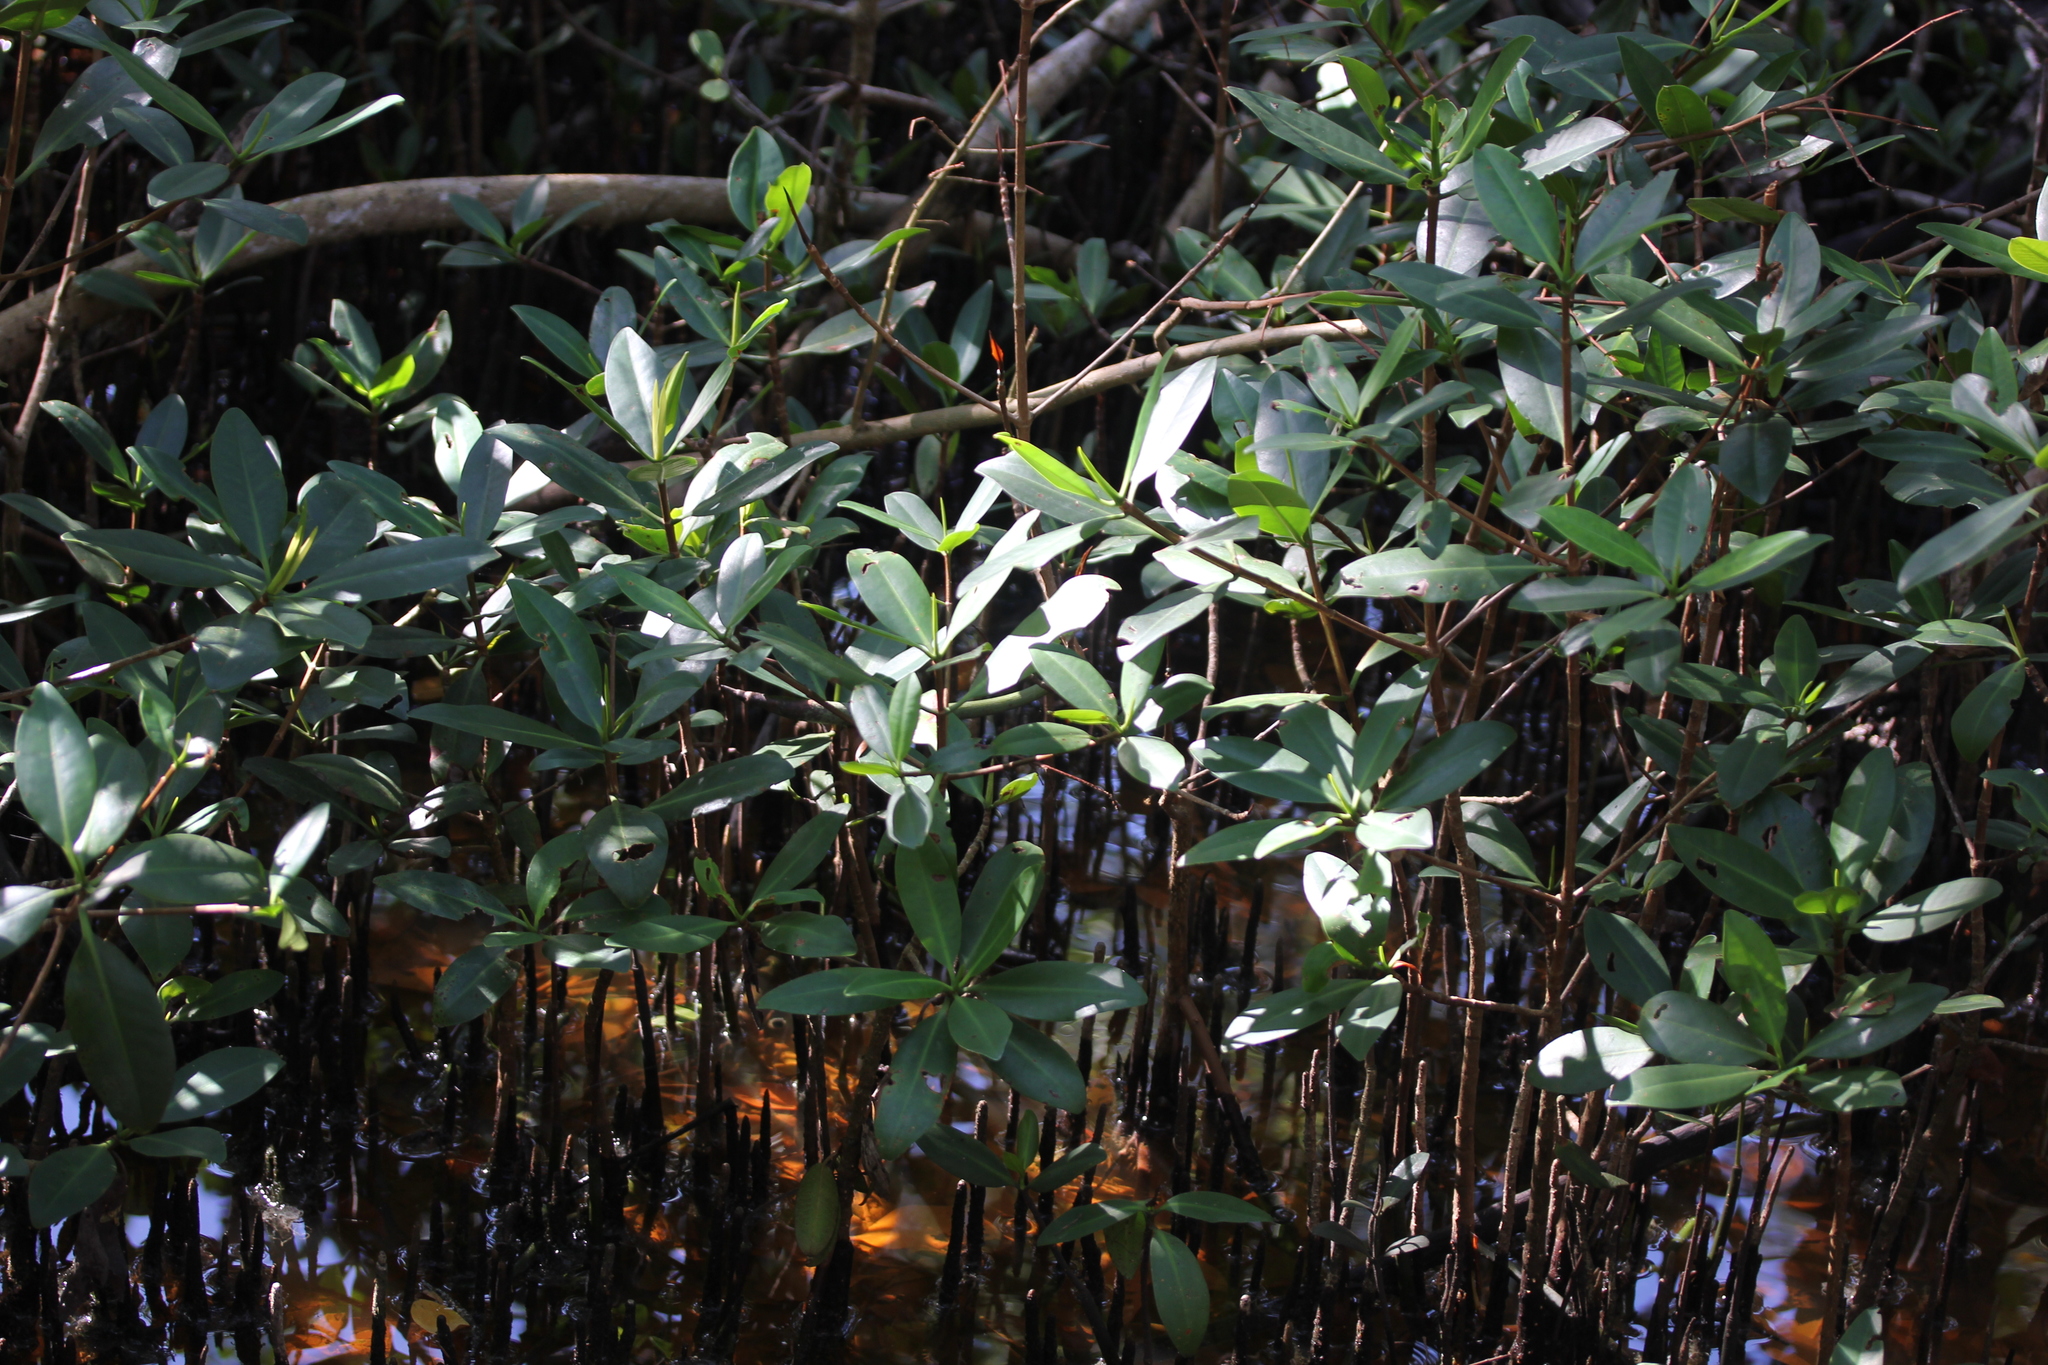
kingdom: Plantae
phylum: Tracheophyta
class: Magnoliopsida
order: Malpighiales
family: Rhizophoraceae
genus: Rhizophora
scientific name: Rhizophora mangle
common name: Red mangrove
